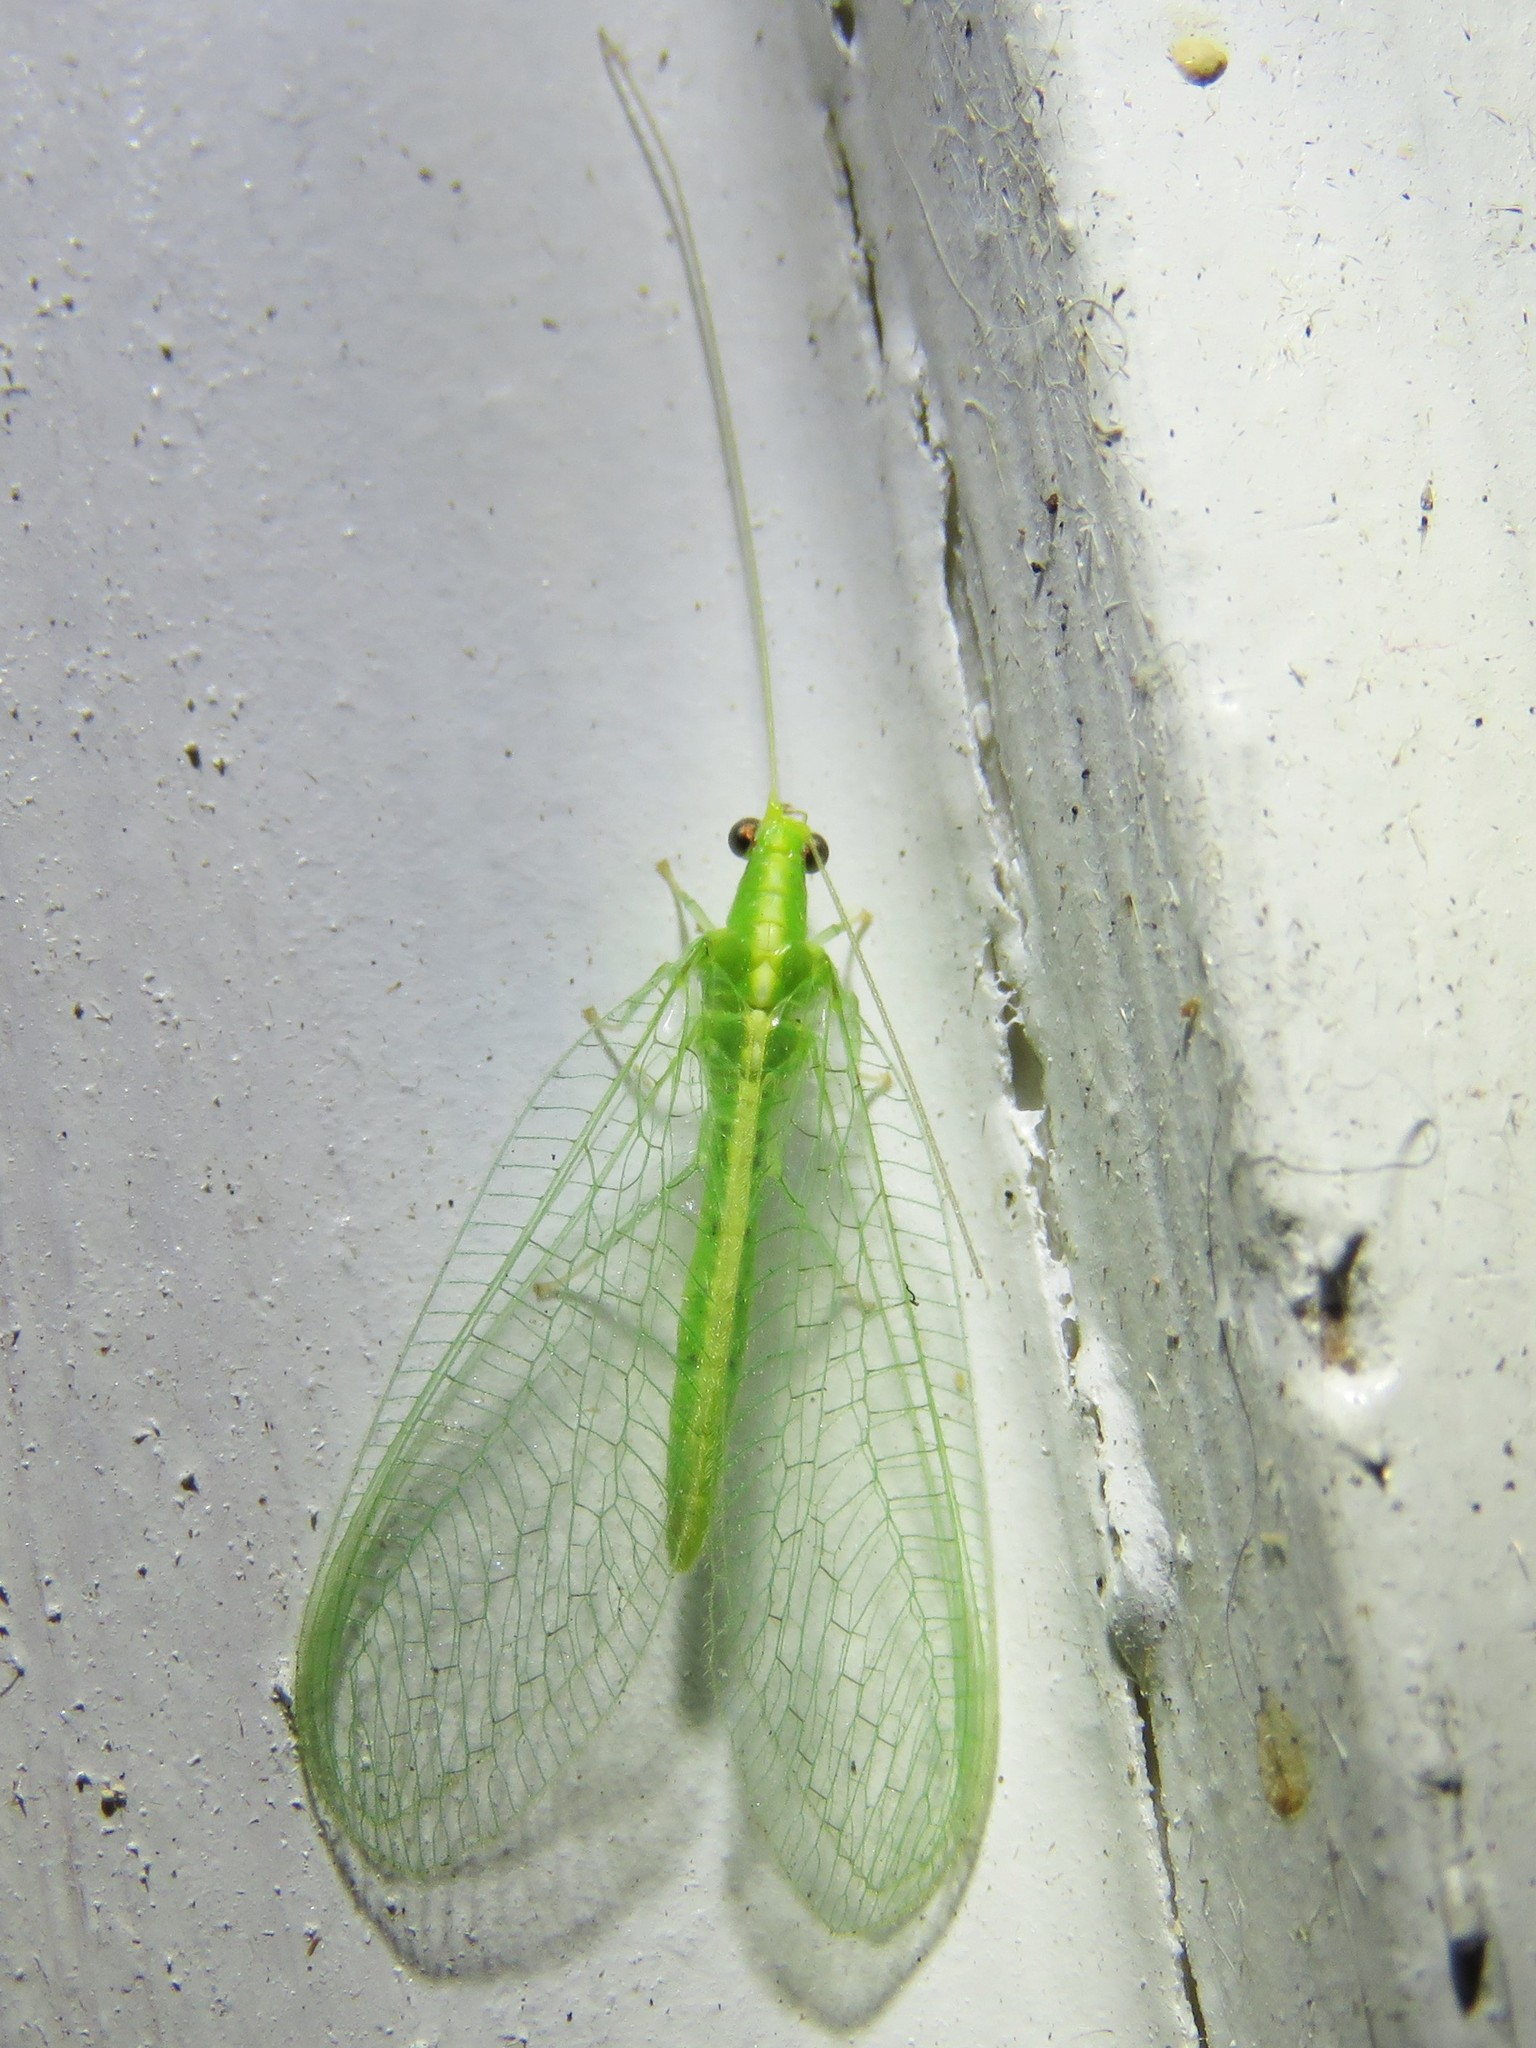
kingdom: Animalia
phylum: Arthropoda
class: Insecta
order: Neuroptera
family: Chrysopidae
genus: Chrysoperla
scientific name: Chrysoperla
